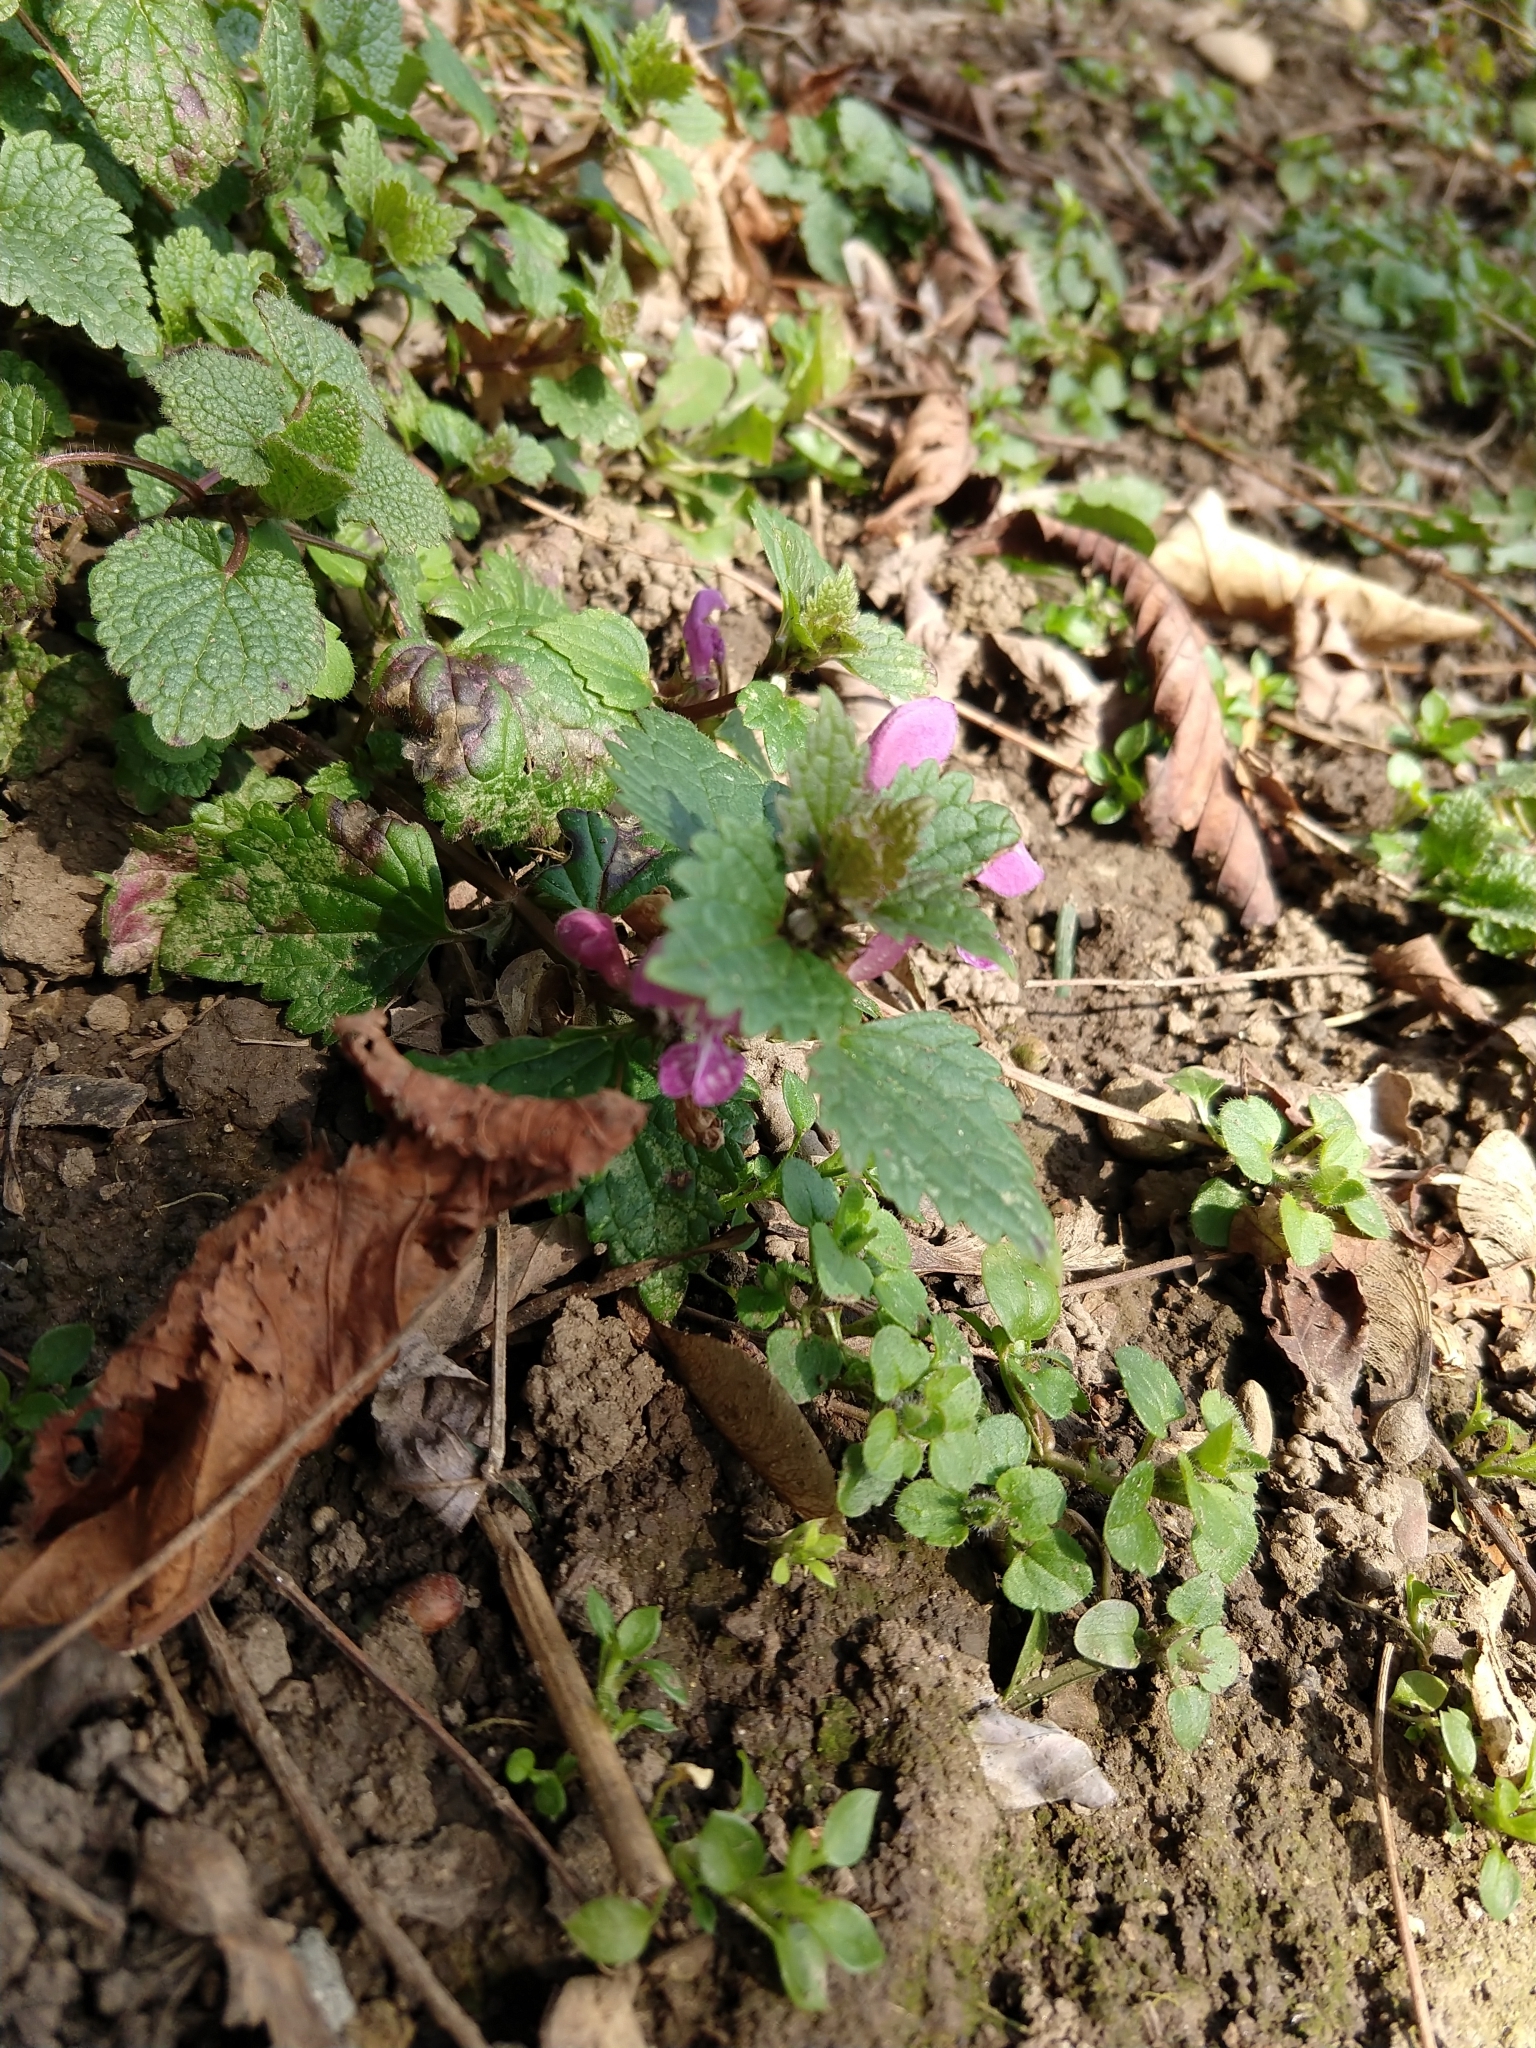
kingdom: Plantae
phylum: Tracheophyta
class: Magnoliopsida
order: Lamiales
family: Lamiaceae
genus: Lamium
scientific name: Lamium maculatum
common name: Spotted dead-nettle
